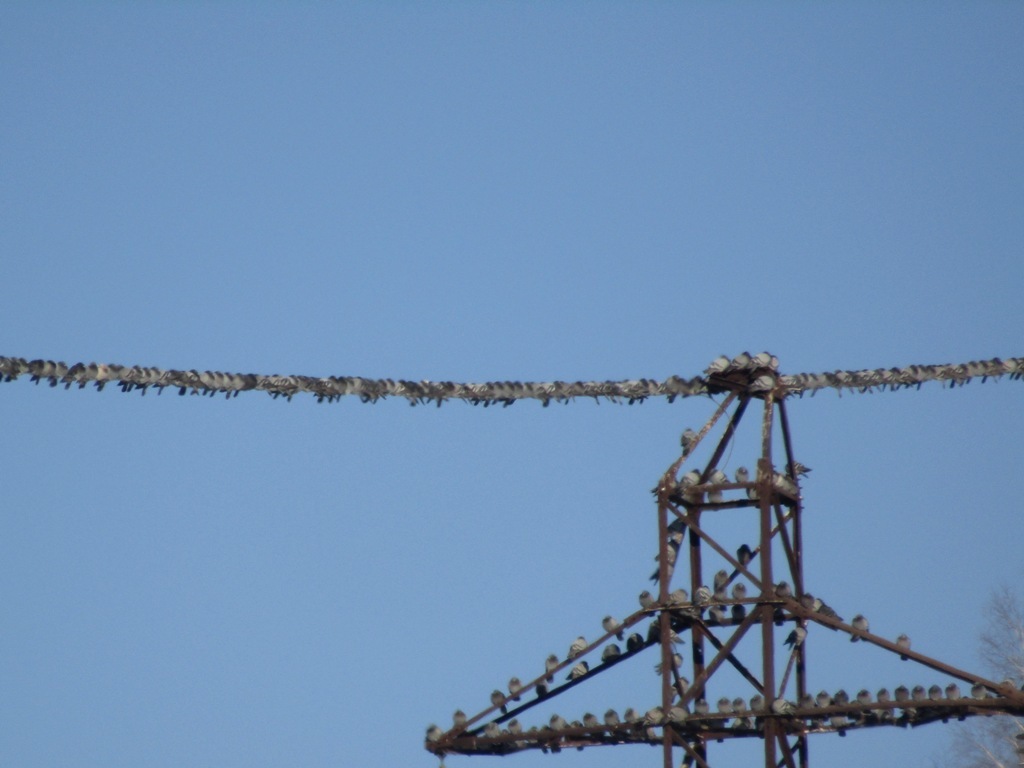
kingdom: Animalia
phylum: Chordata
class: Aves
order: Columbiformes
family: Columbidae
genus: Columba
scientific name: Columba livia
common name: Rock pigeon
